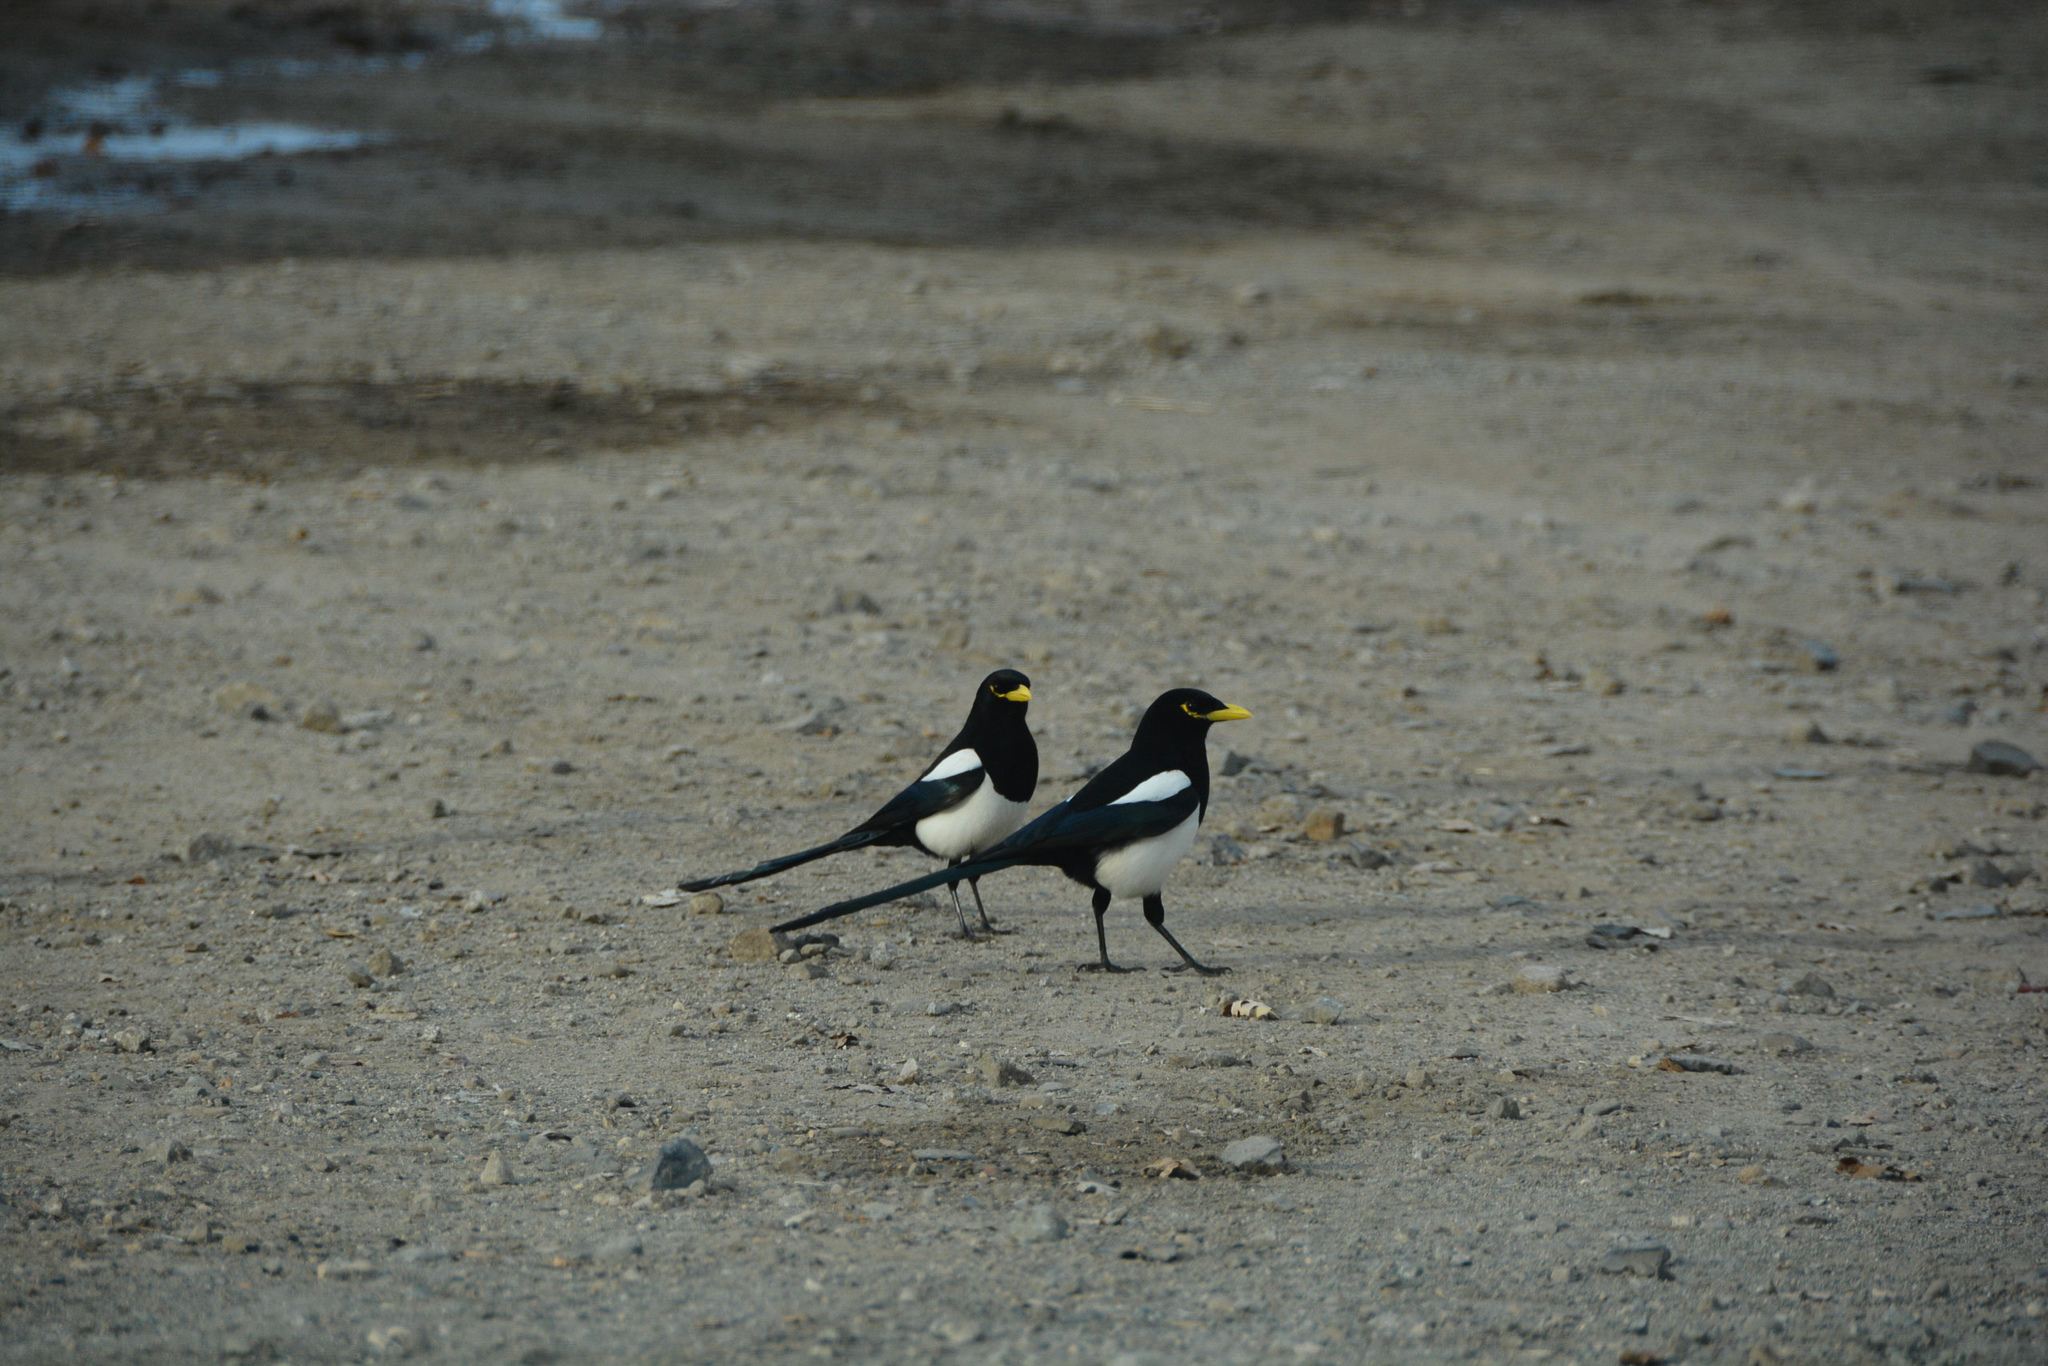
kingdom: Animalia
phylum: Chordata
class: Aves
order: Passeriformes
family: Corvidae
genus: Pica
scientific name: Pica nuttalli
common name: Yellow-billed magpie
